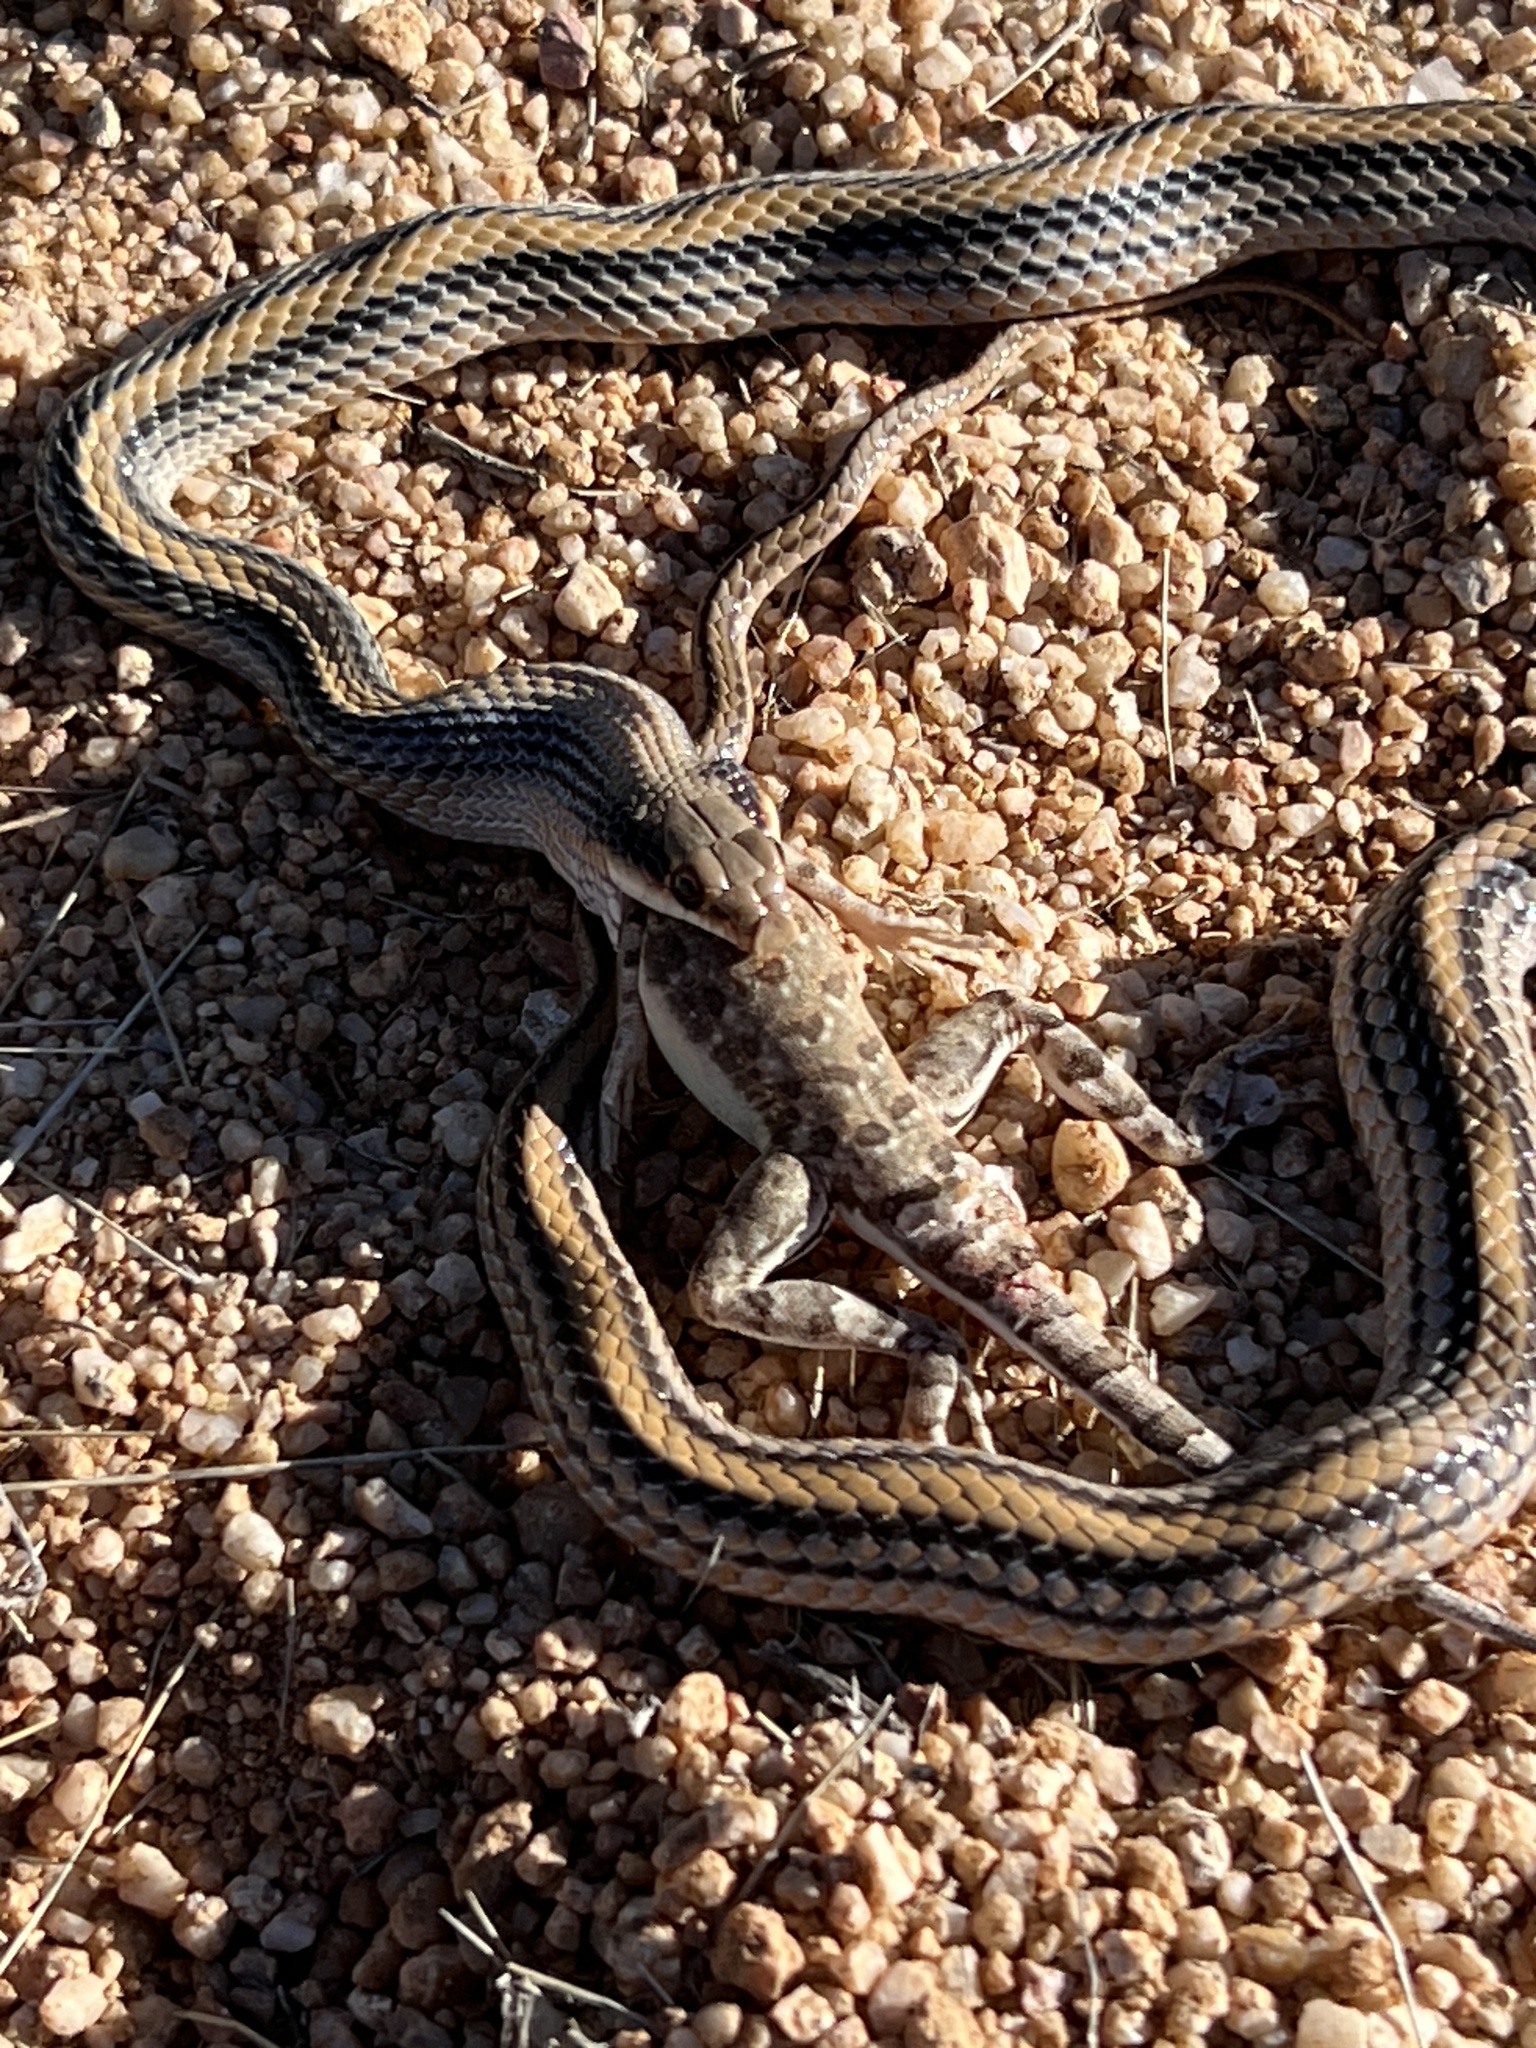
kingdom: Animalia
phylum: Chordata
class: Squamata
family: Colubridae
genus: Salvadora
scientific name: Salvadora deserticola
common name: Big bend patchnose snake
